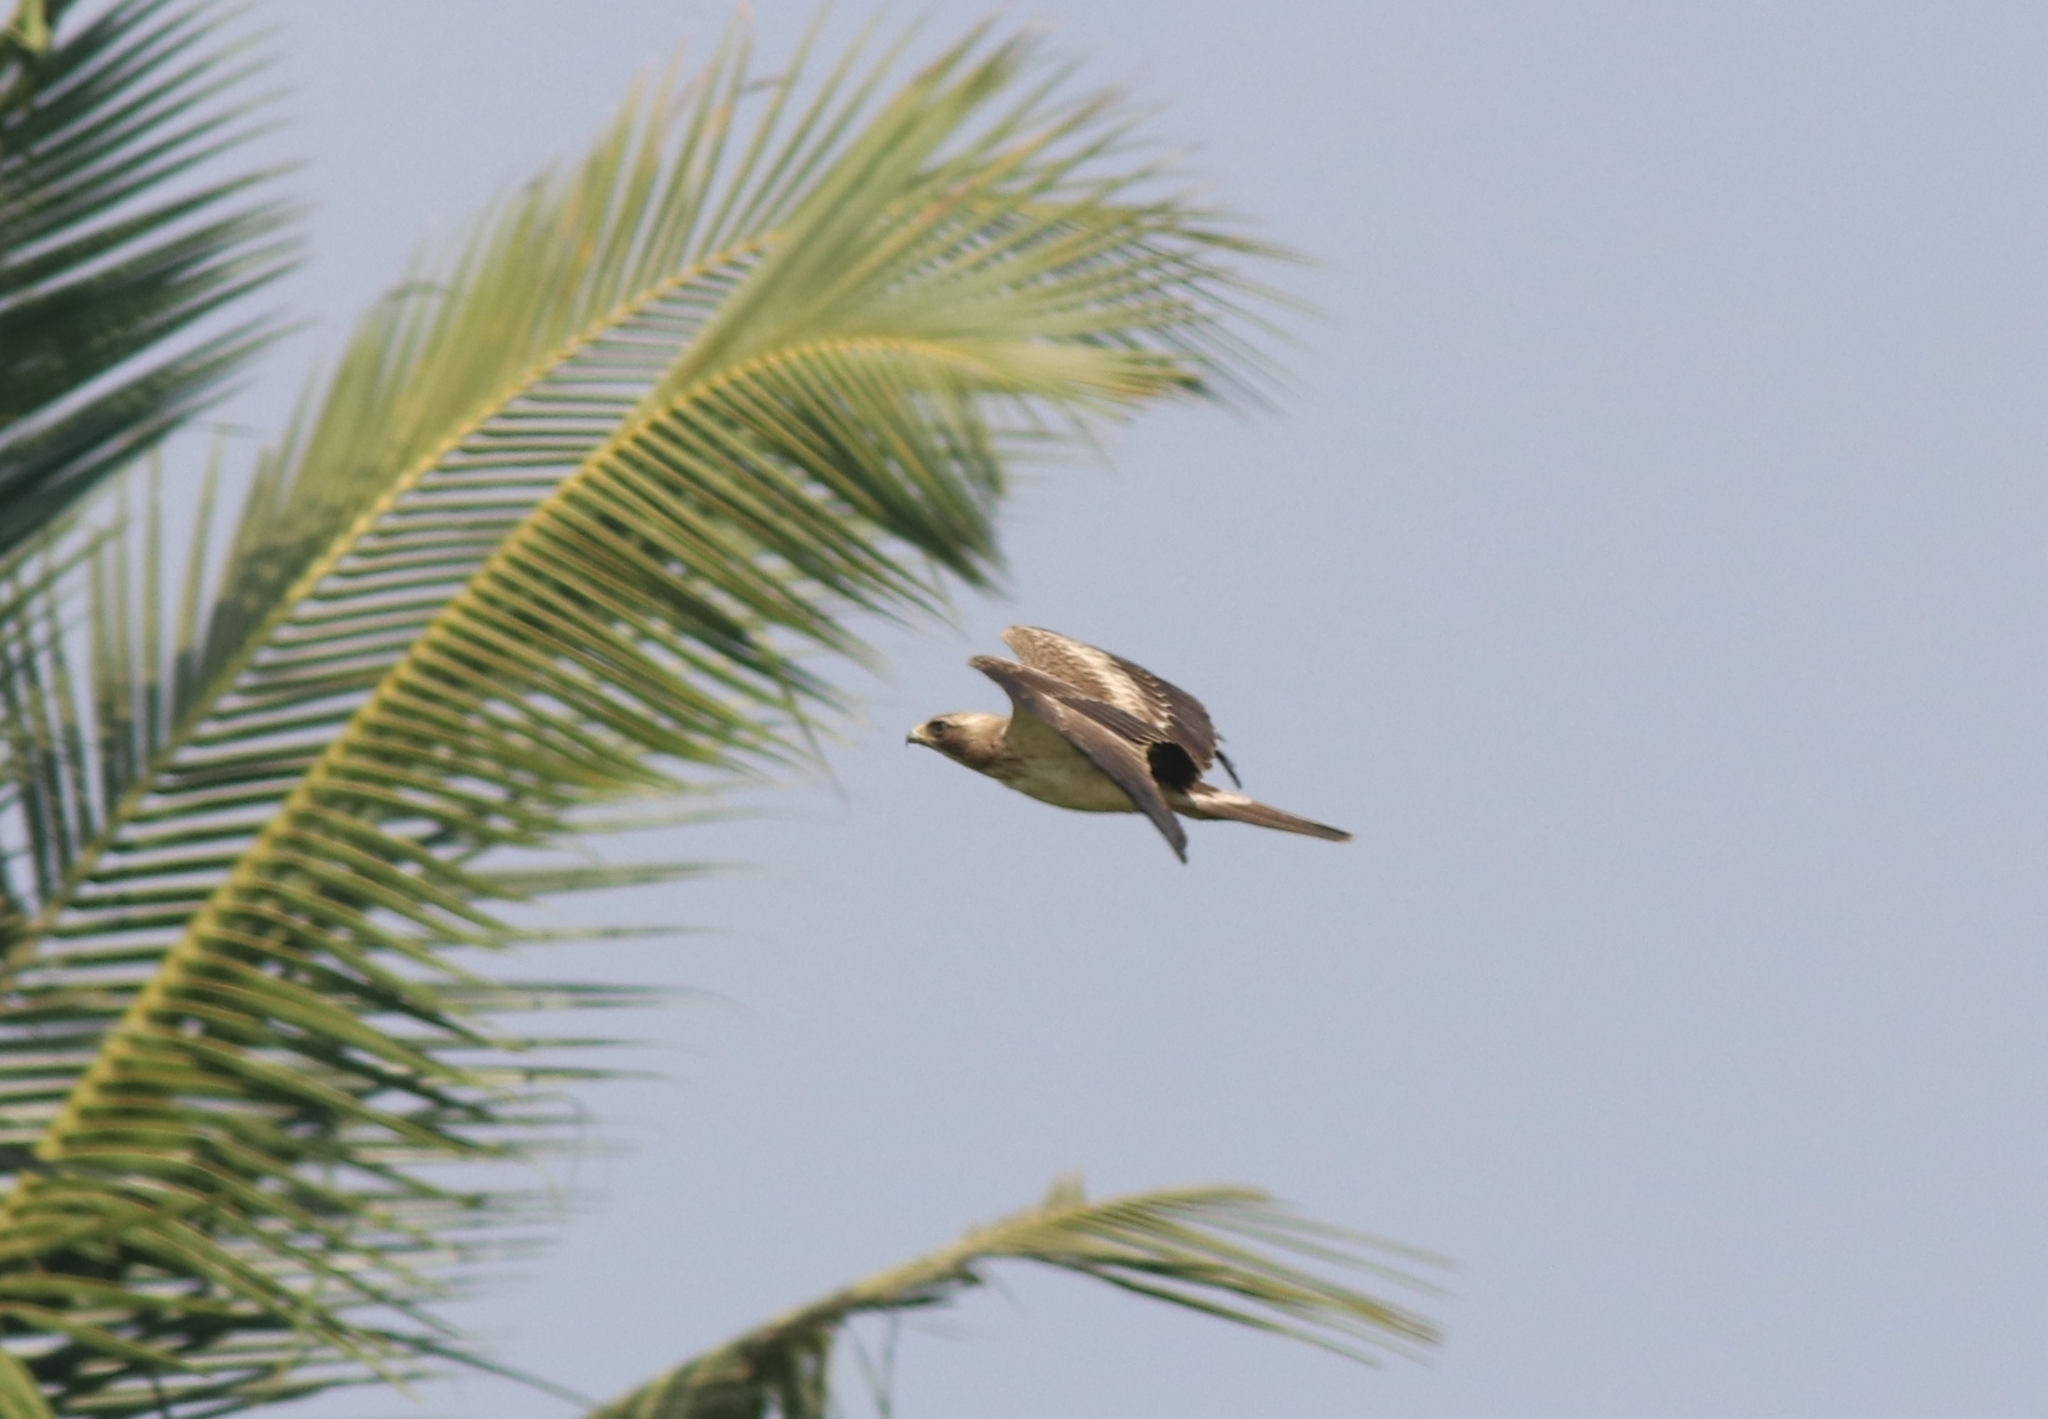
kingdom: Animalia
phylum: Chordata
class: Aves
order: Accipitriformes
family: Accipitridae
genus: Hieraaetus
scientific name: Hieraaetus pennatus
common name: Booted eagle
